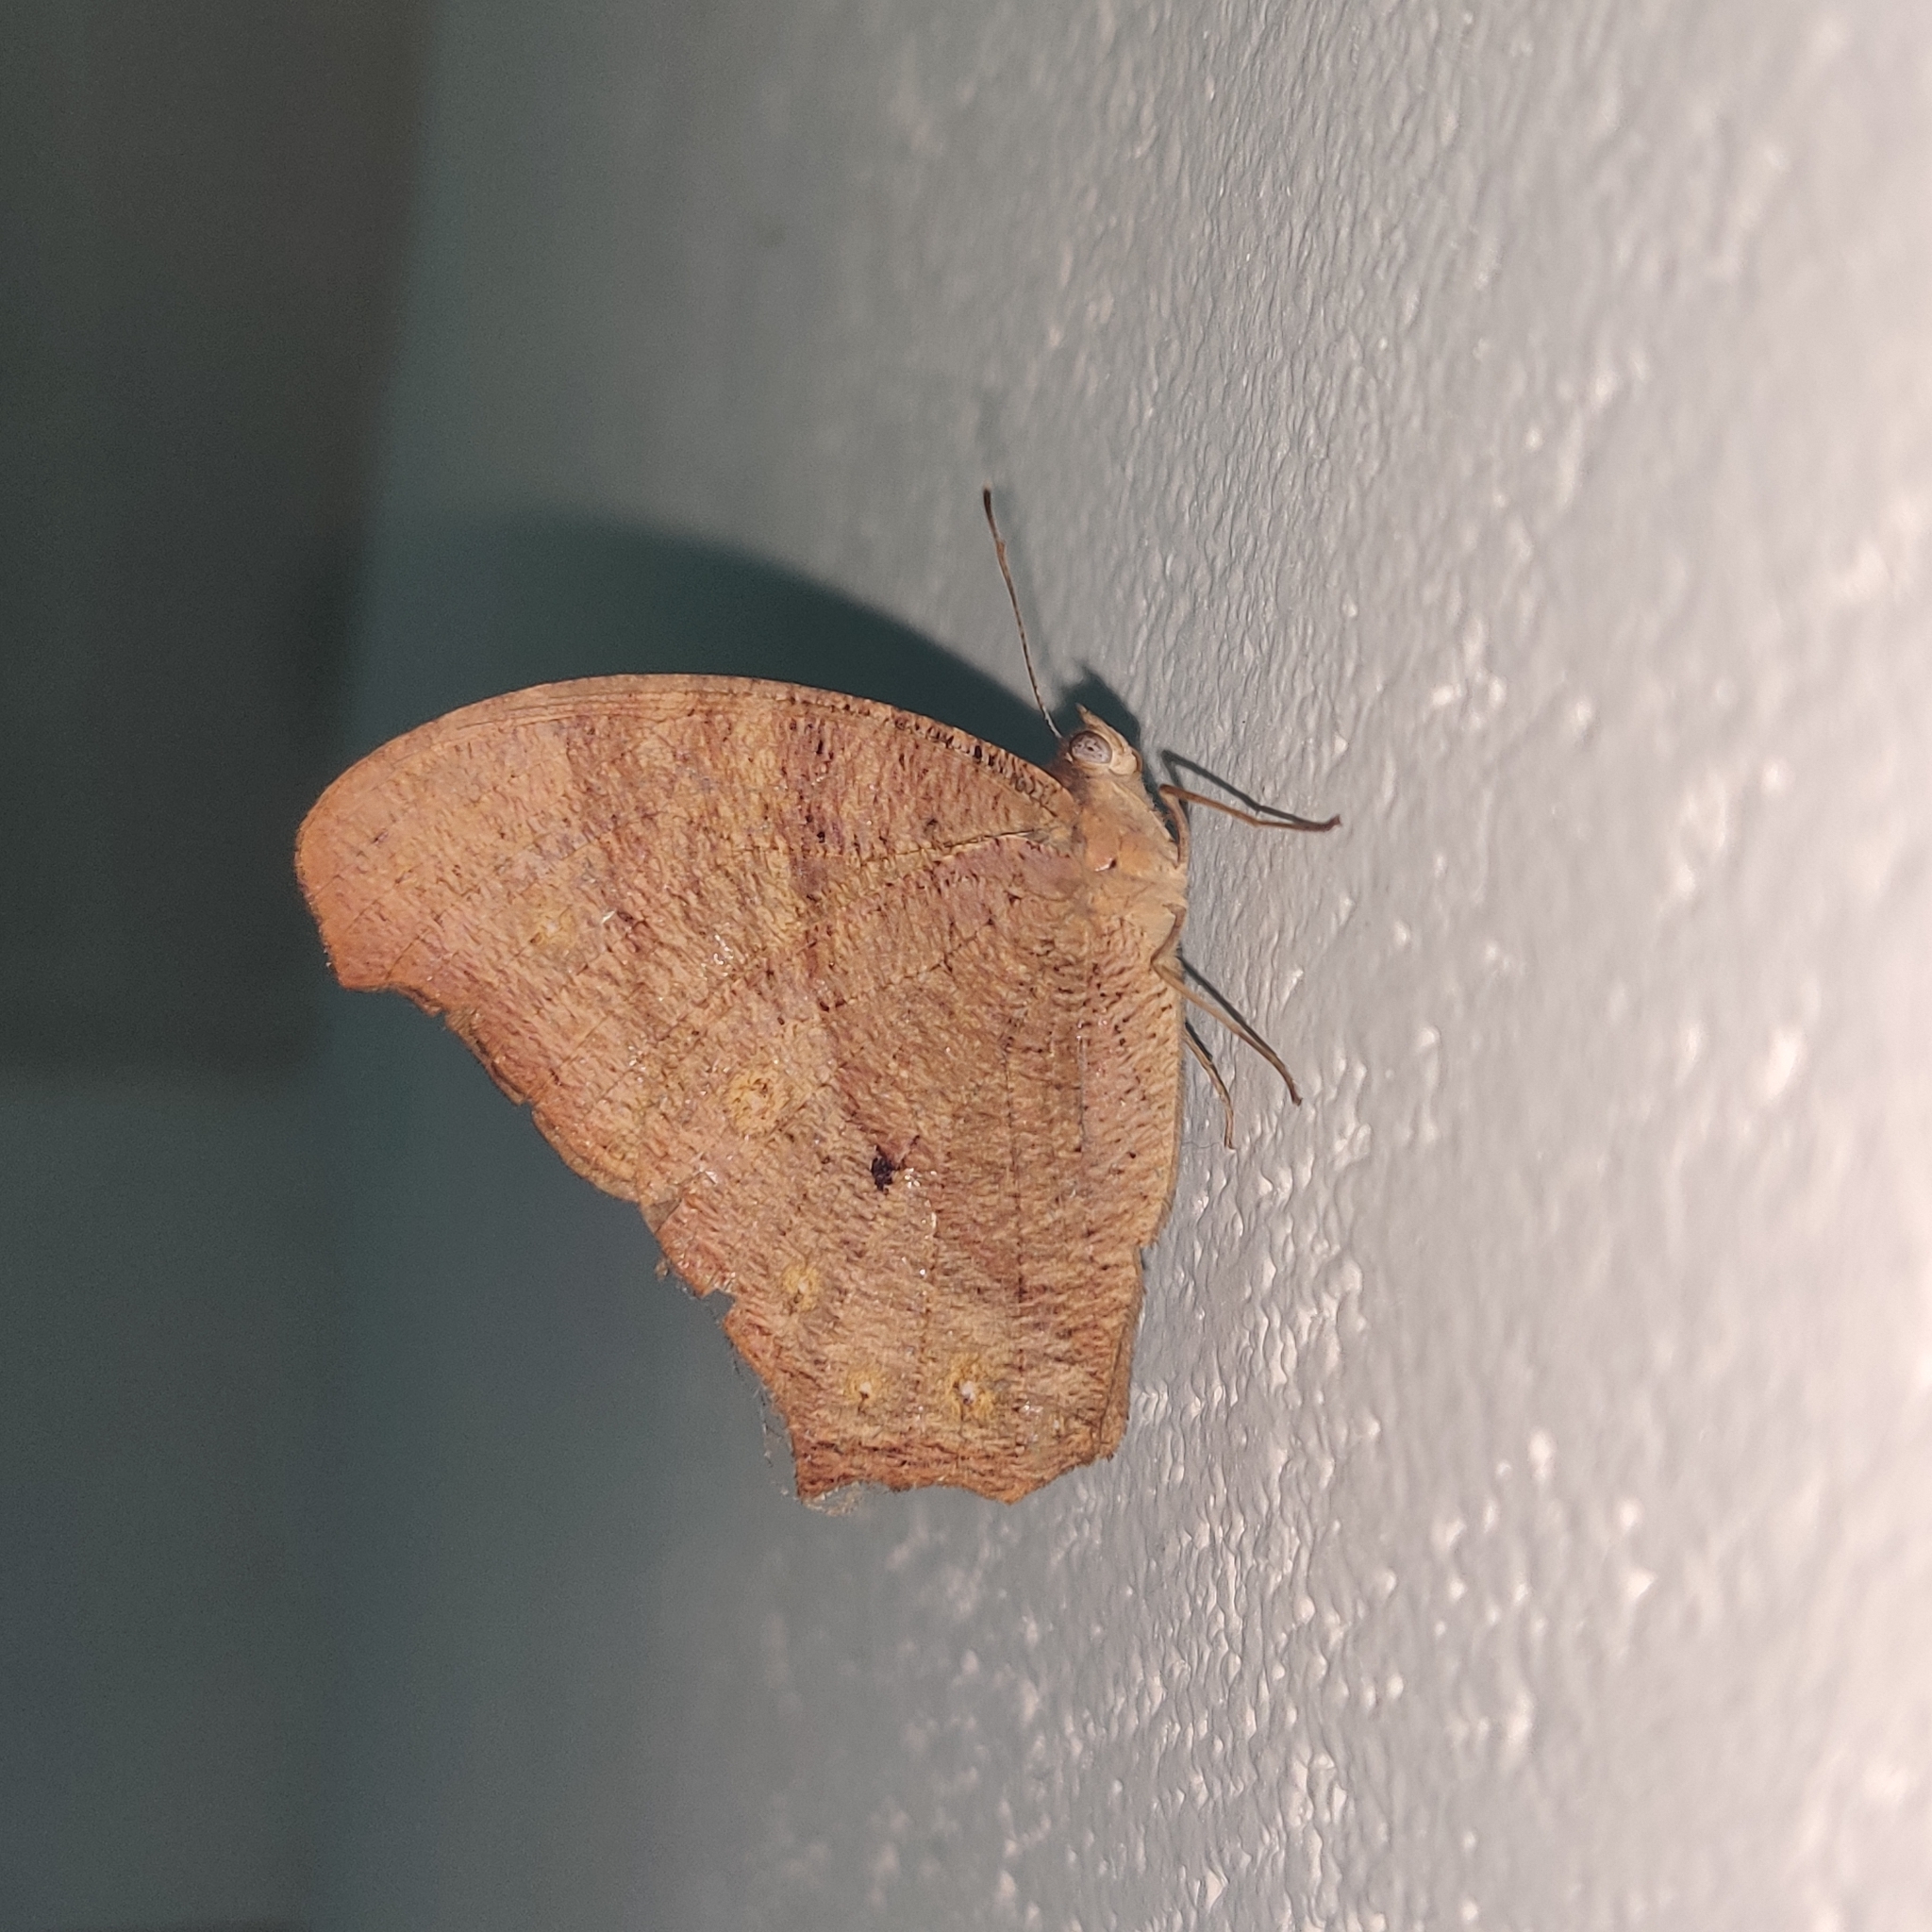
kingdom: Animalia
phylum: Arthropoda
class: Insecta
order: Lepidoptera
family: Nymphalidae
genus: Melanitis
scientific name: Melanitis leda
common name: Twilight brown
